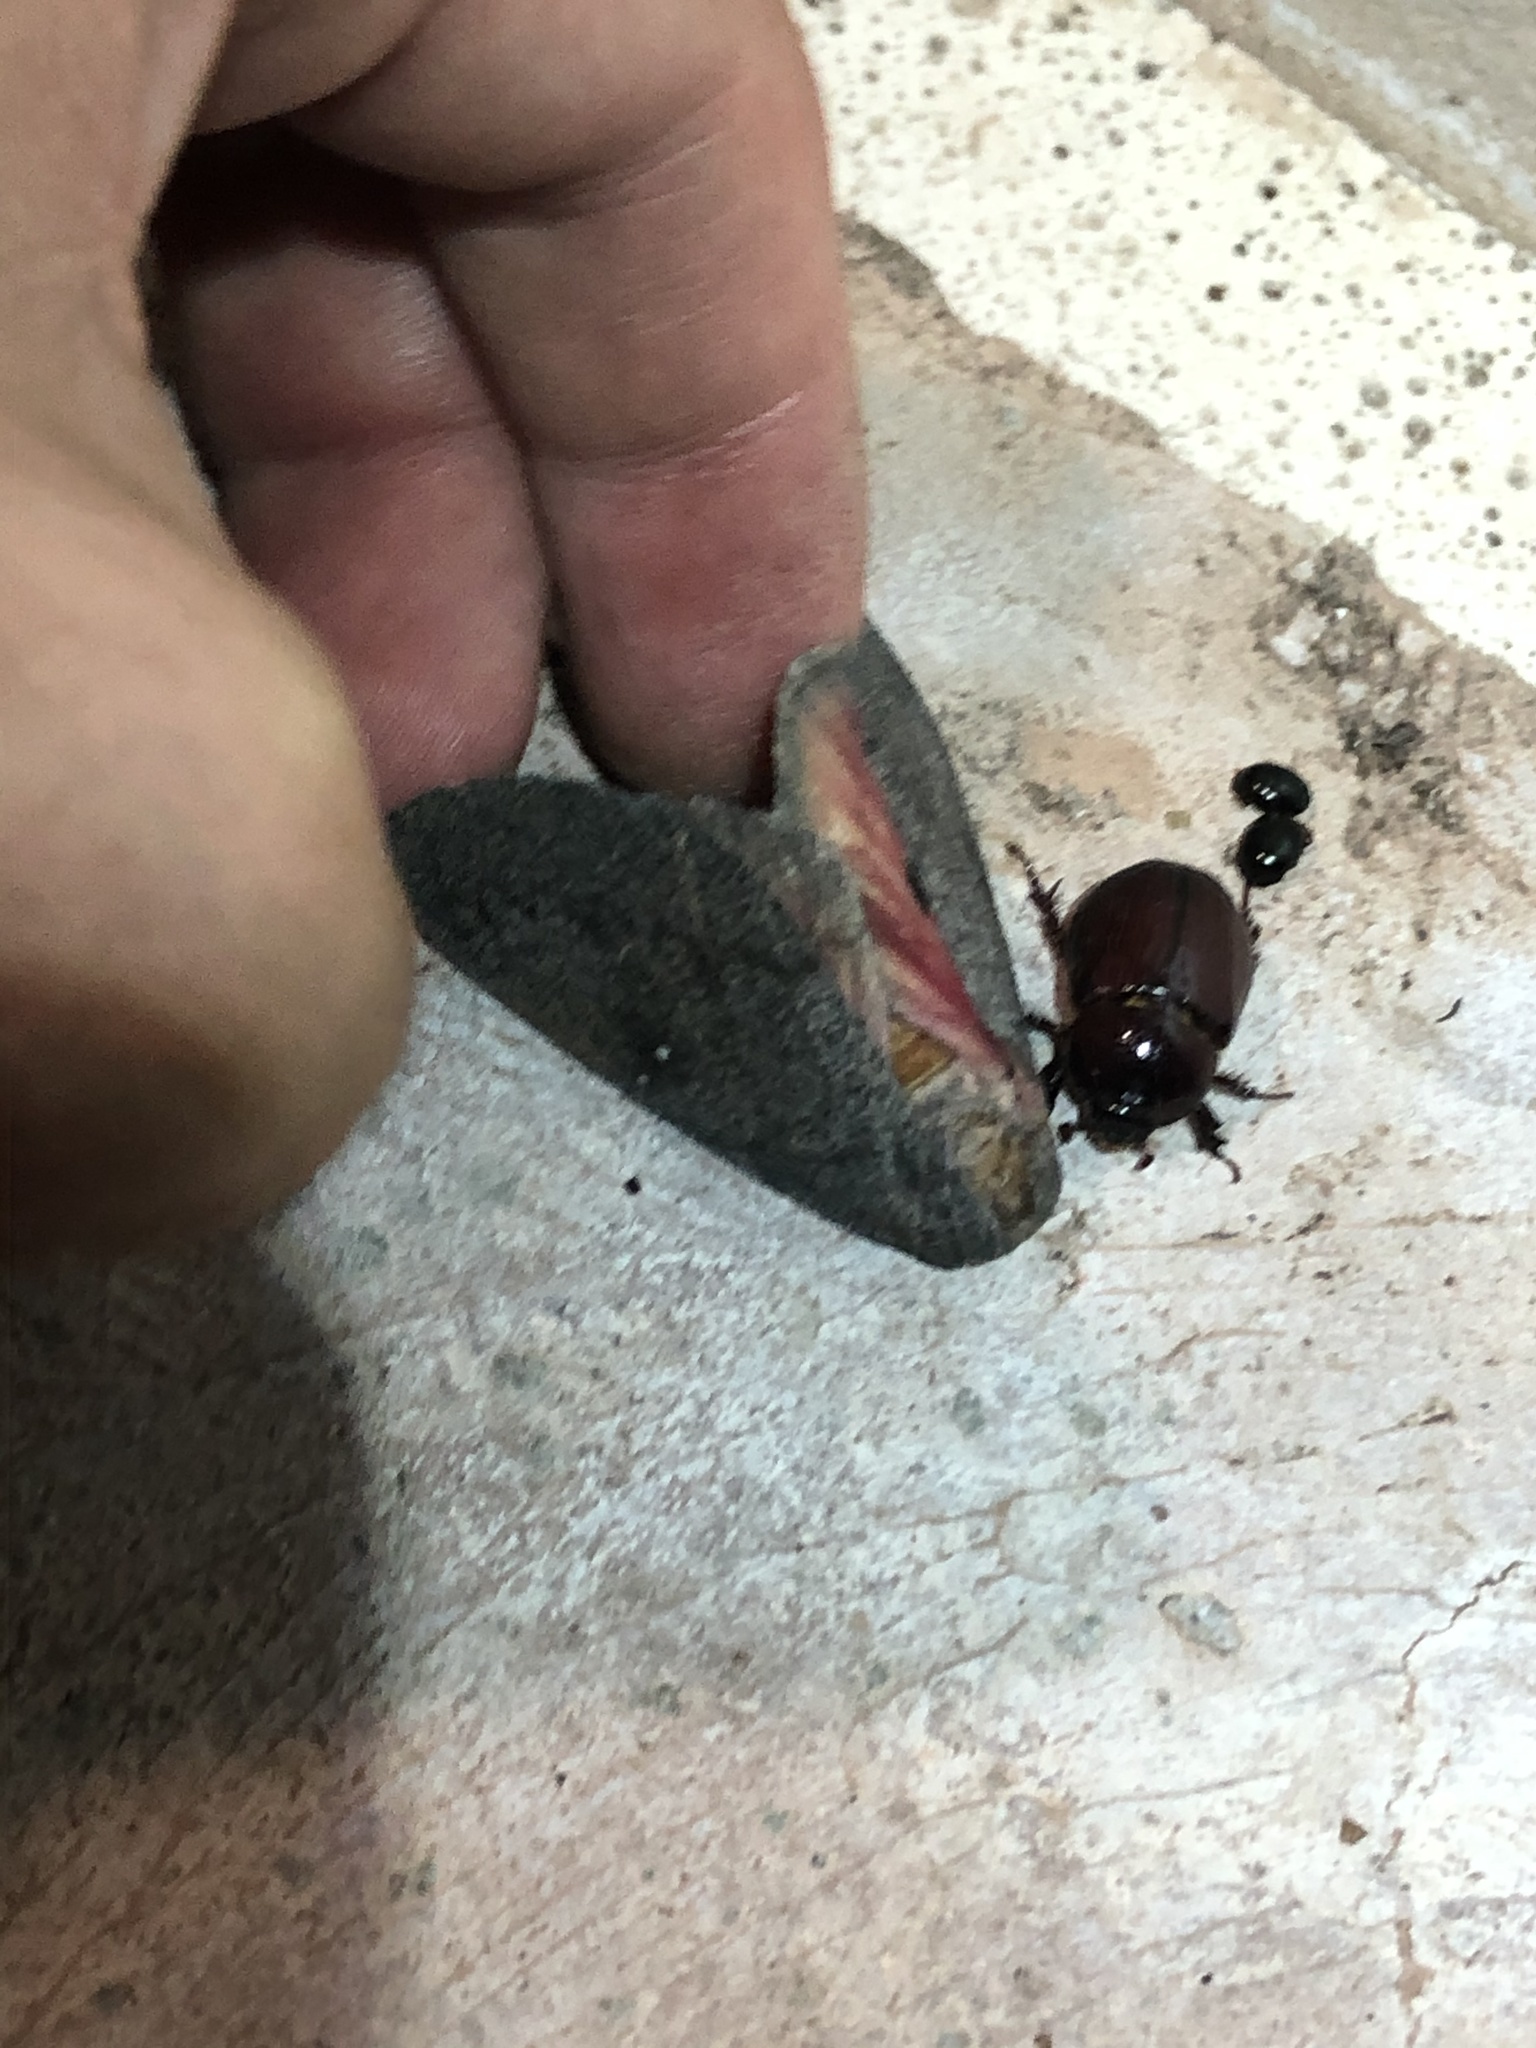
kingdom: Animalia
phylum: Arthropoda
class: Insecta
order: Lepidoptera
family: Saturniidae
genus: Syssphinx
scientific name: Syssphinx hubbardi
